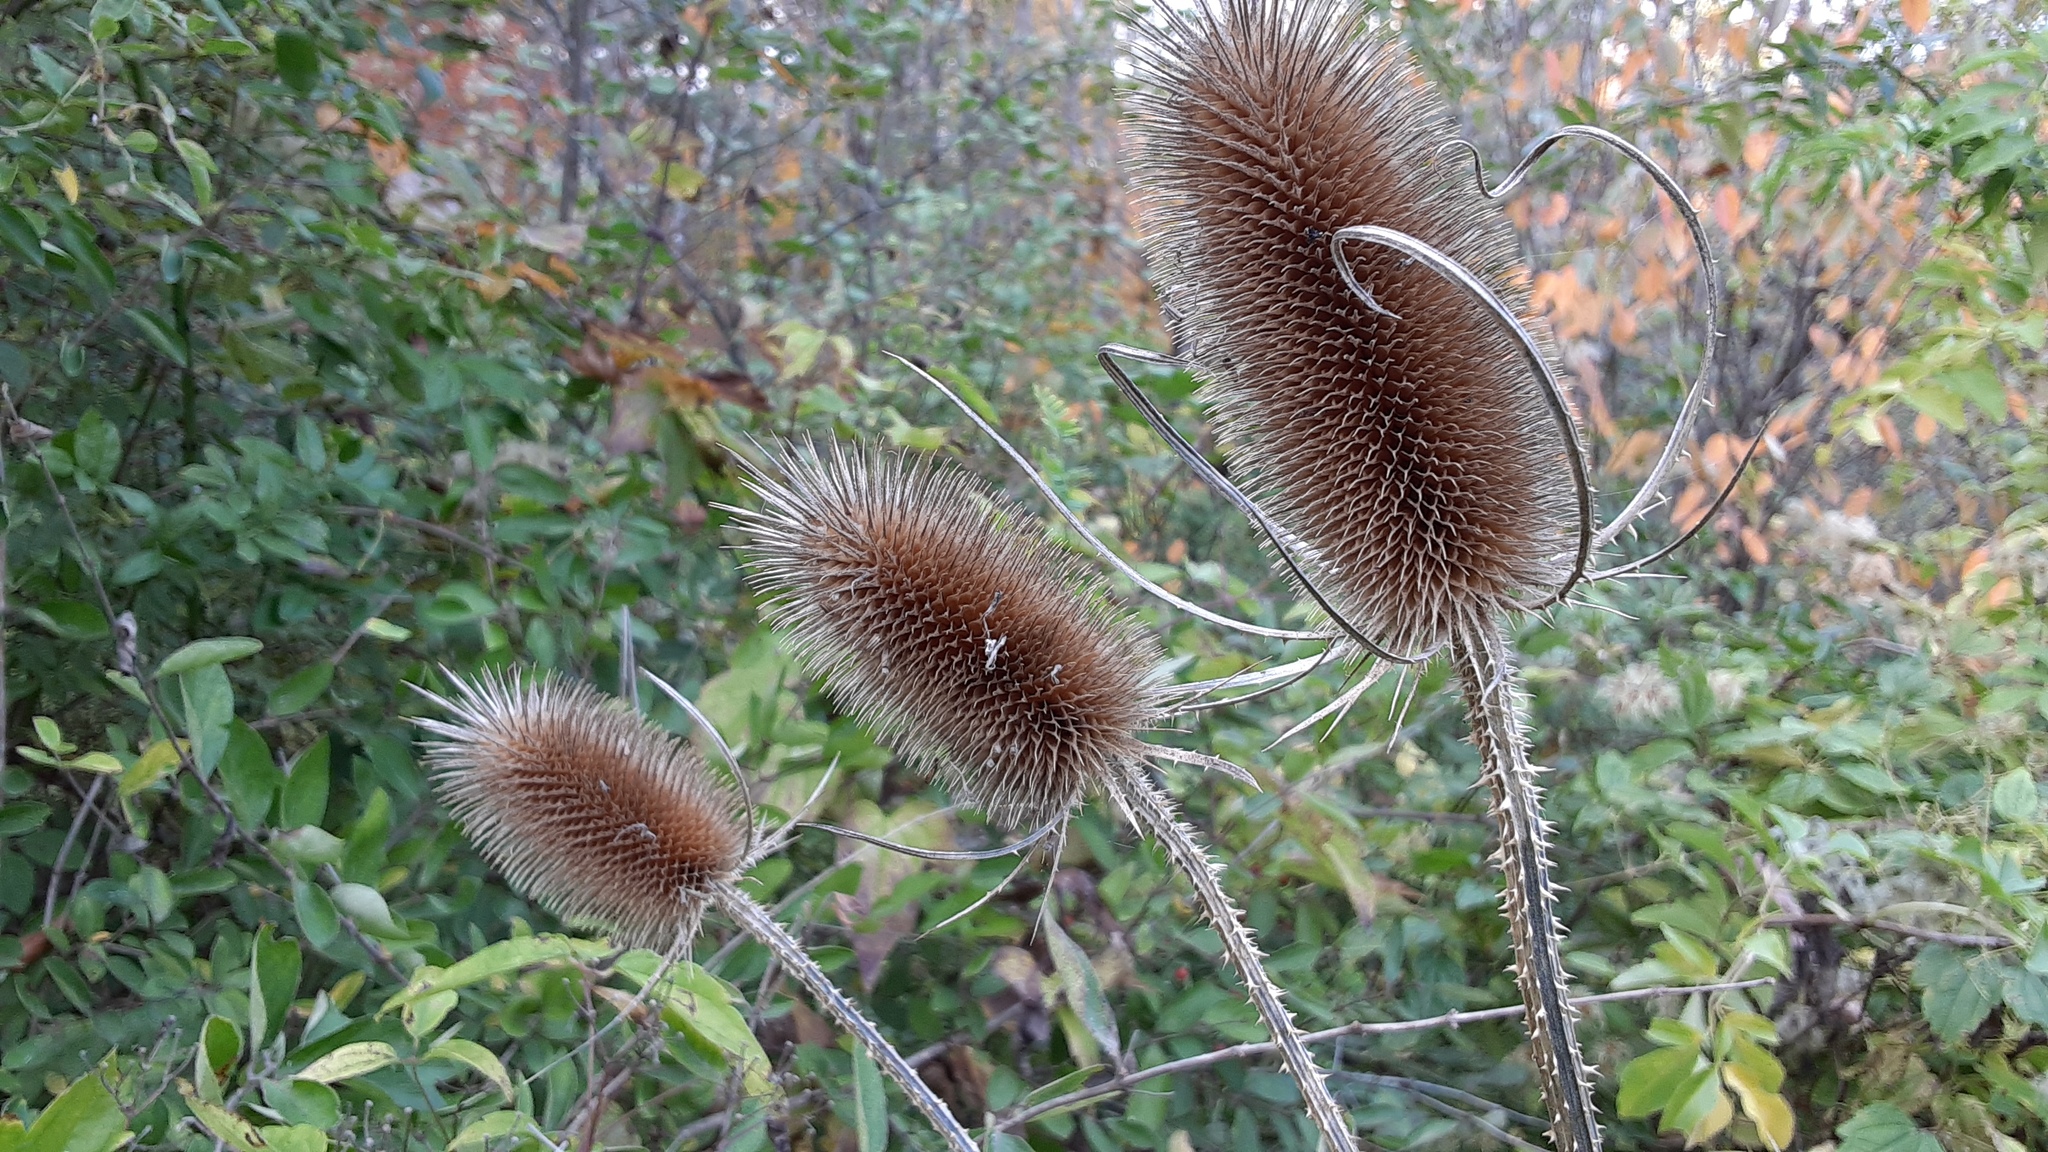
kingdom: Plantae
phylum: Tracheophyta
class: Magnoliopsida
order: Dipsacales
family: Caprifoliaceae
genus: Dipsacus
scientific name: Dipsacus fullonum
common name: Teasel
